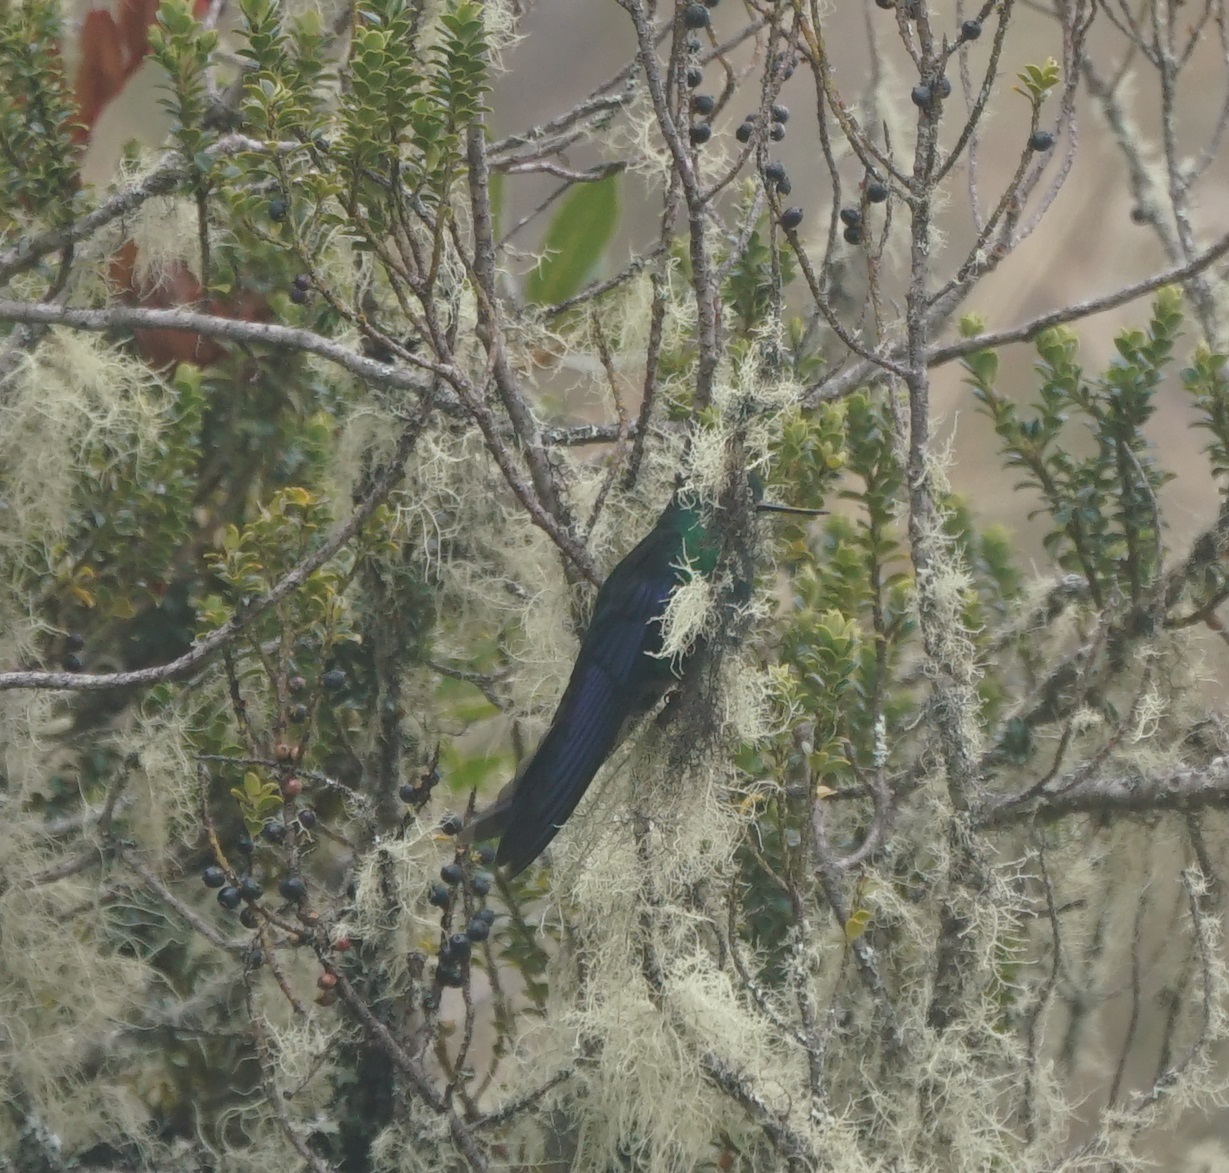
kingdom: Animalia
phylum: Chordata
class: Aves
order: Apodiformes
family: Trochilidae
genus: Pterophanes
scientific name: Pterophanes cyanopterus
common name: Great sapphirewing
